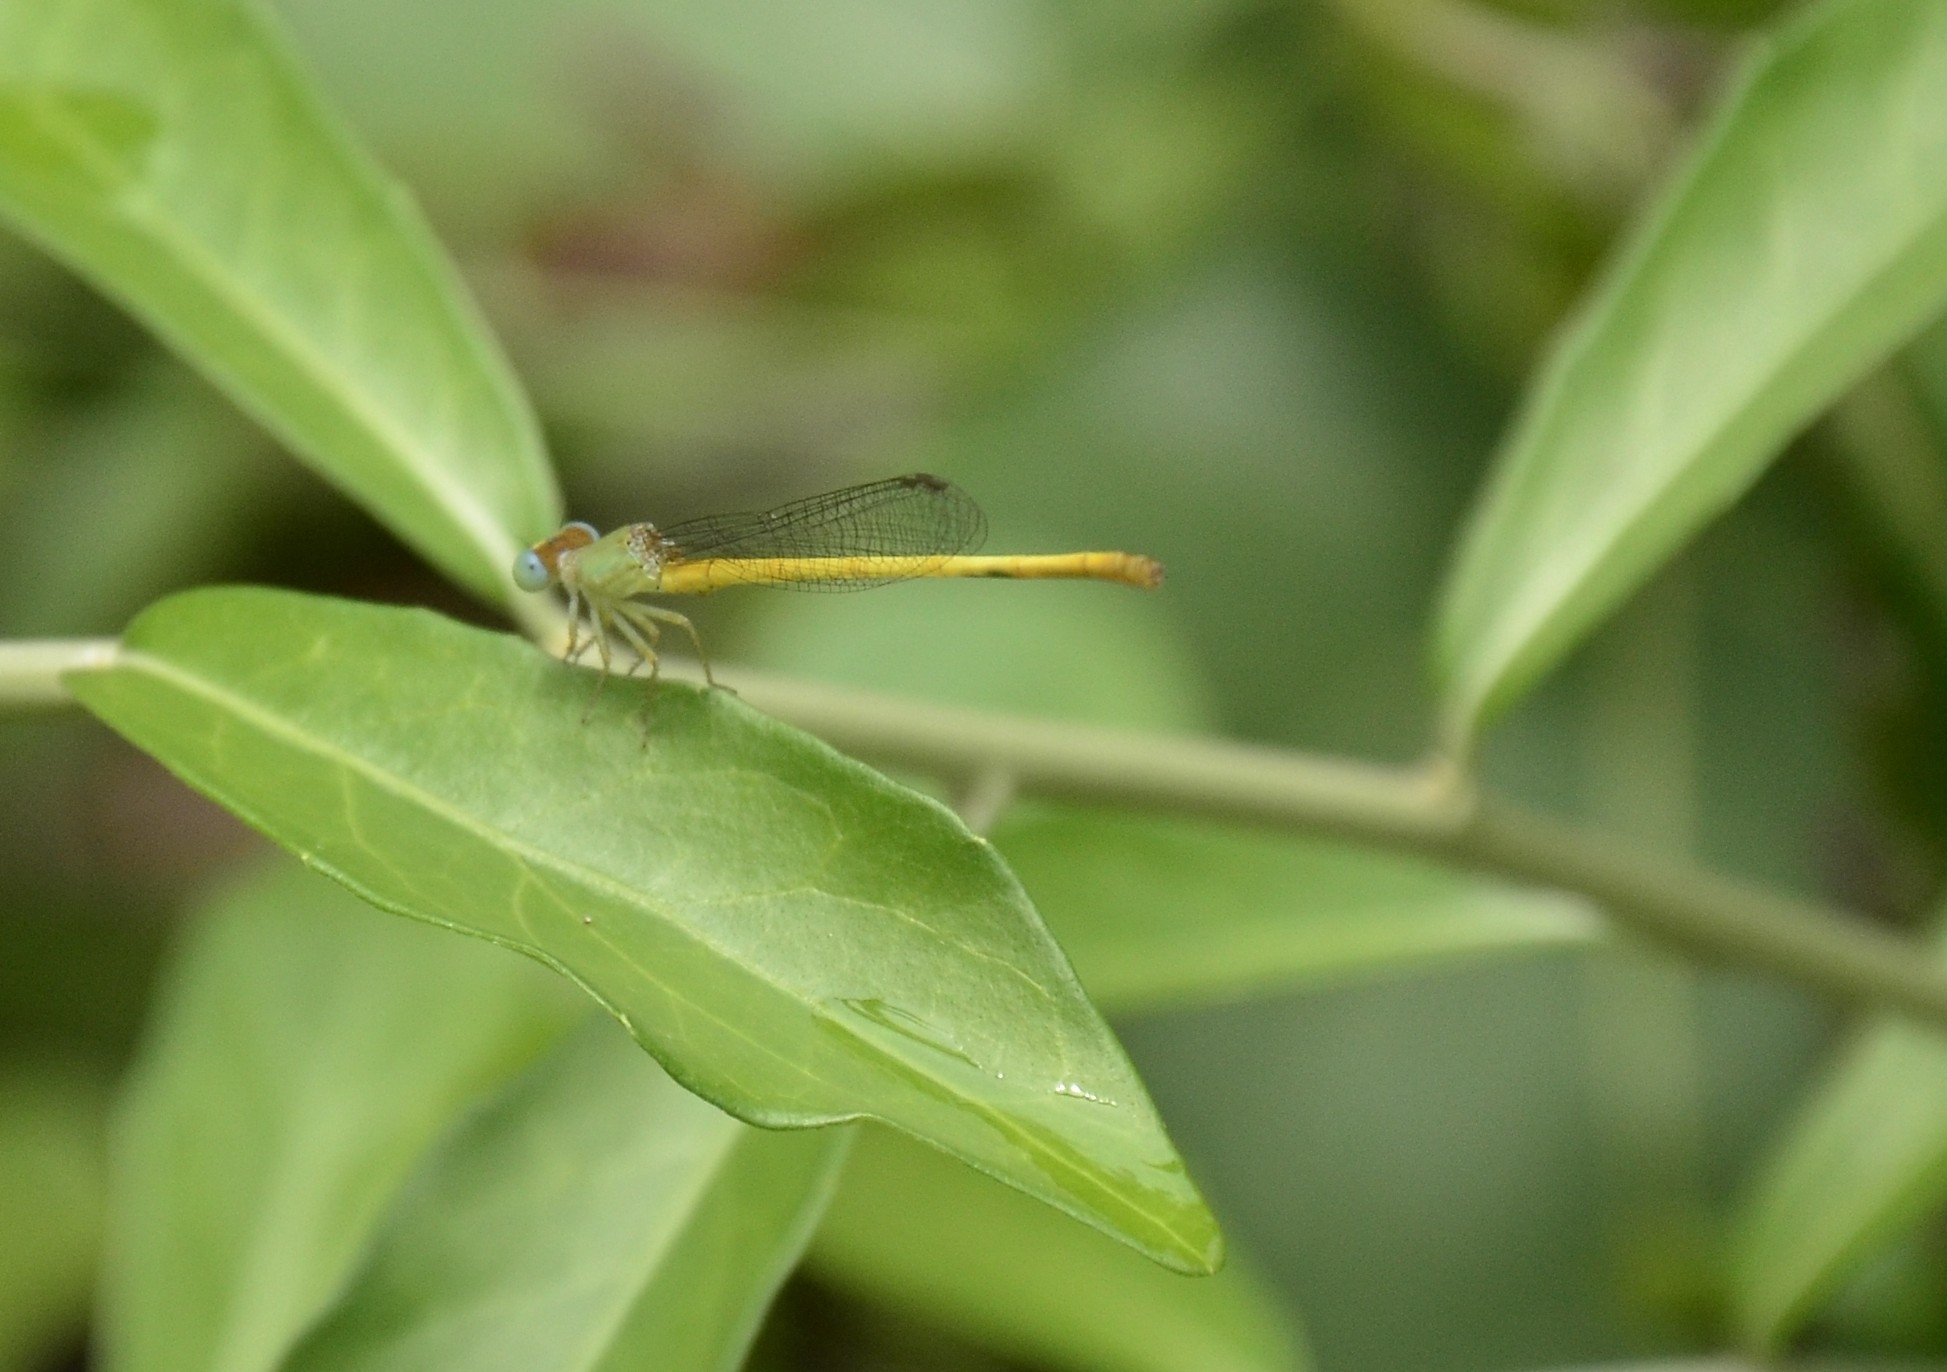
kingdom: Animalia
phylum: Arthropoda
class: Insecta
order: Odonata
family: Coenagrionidae
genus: Ceriagrion
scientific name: Ceriagrion coromandelianum
